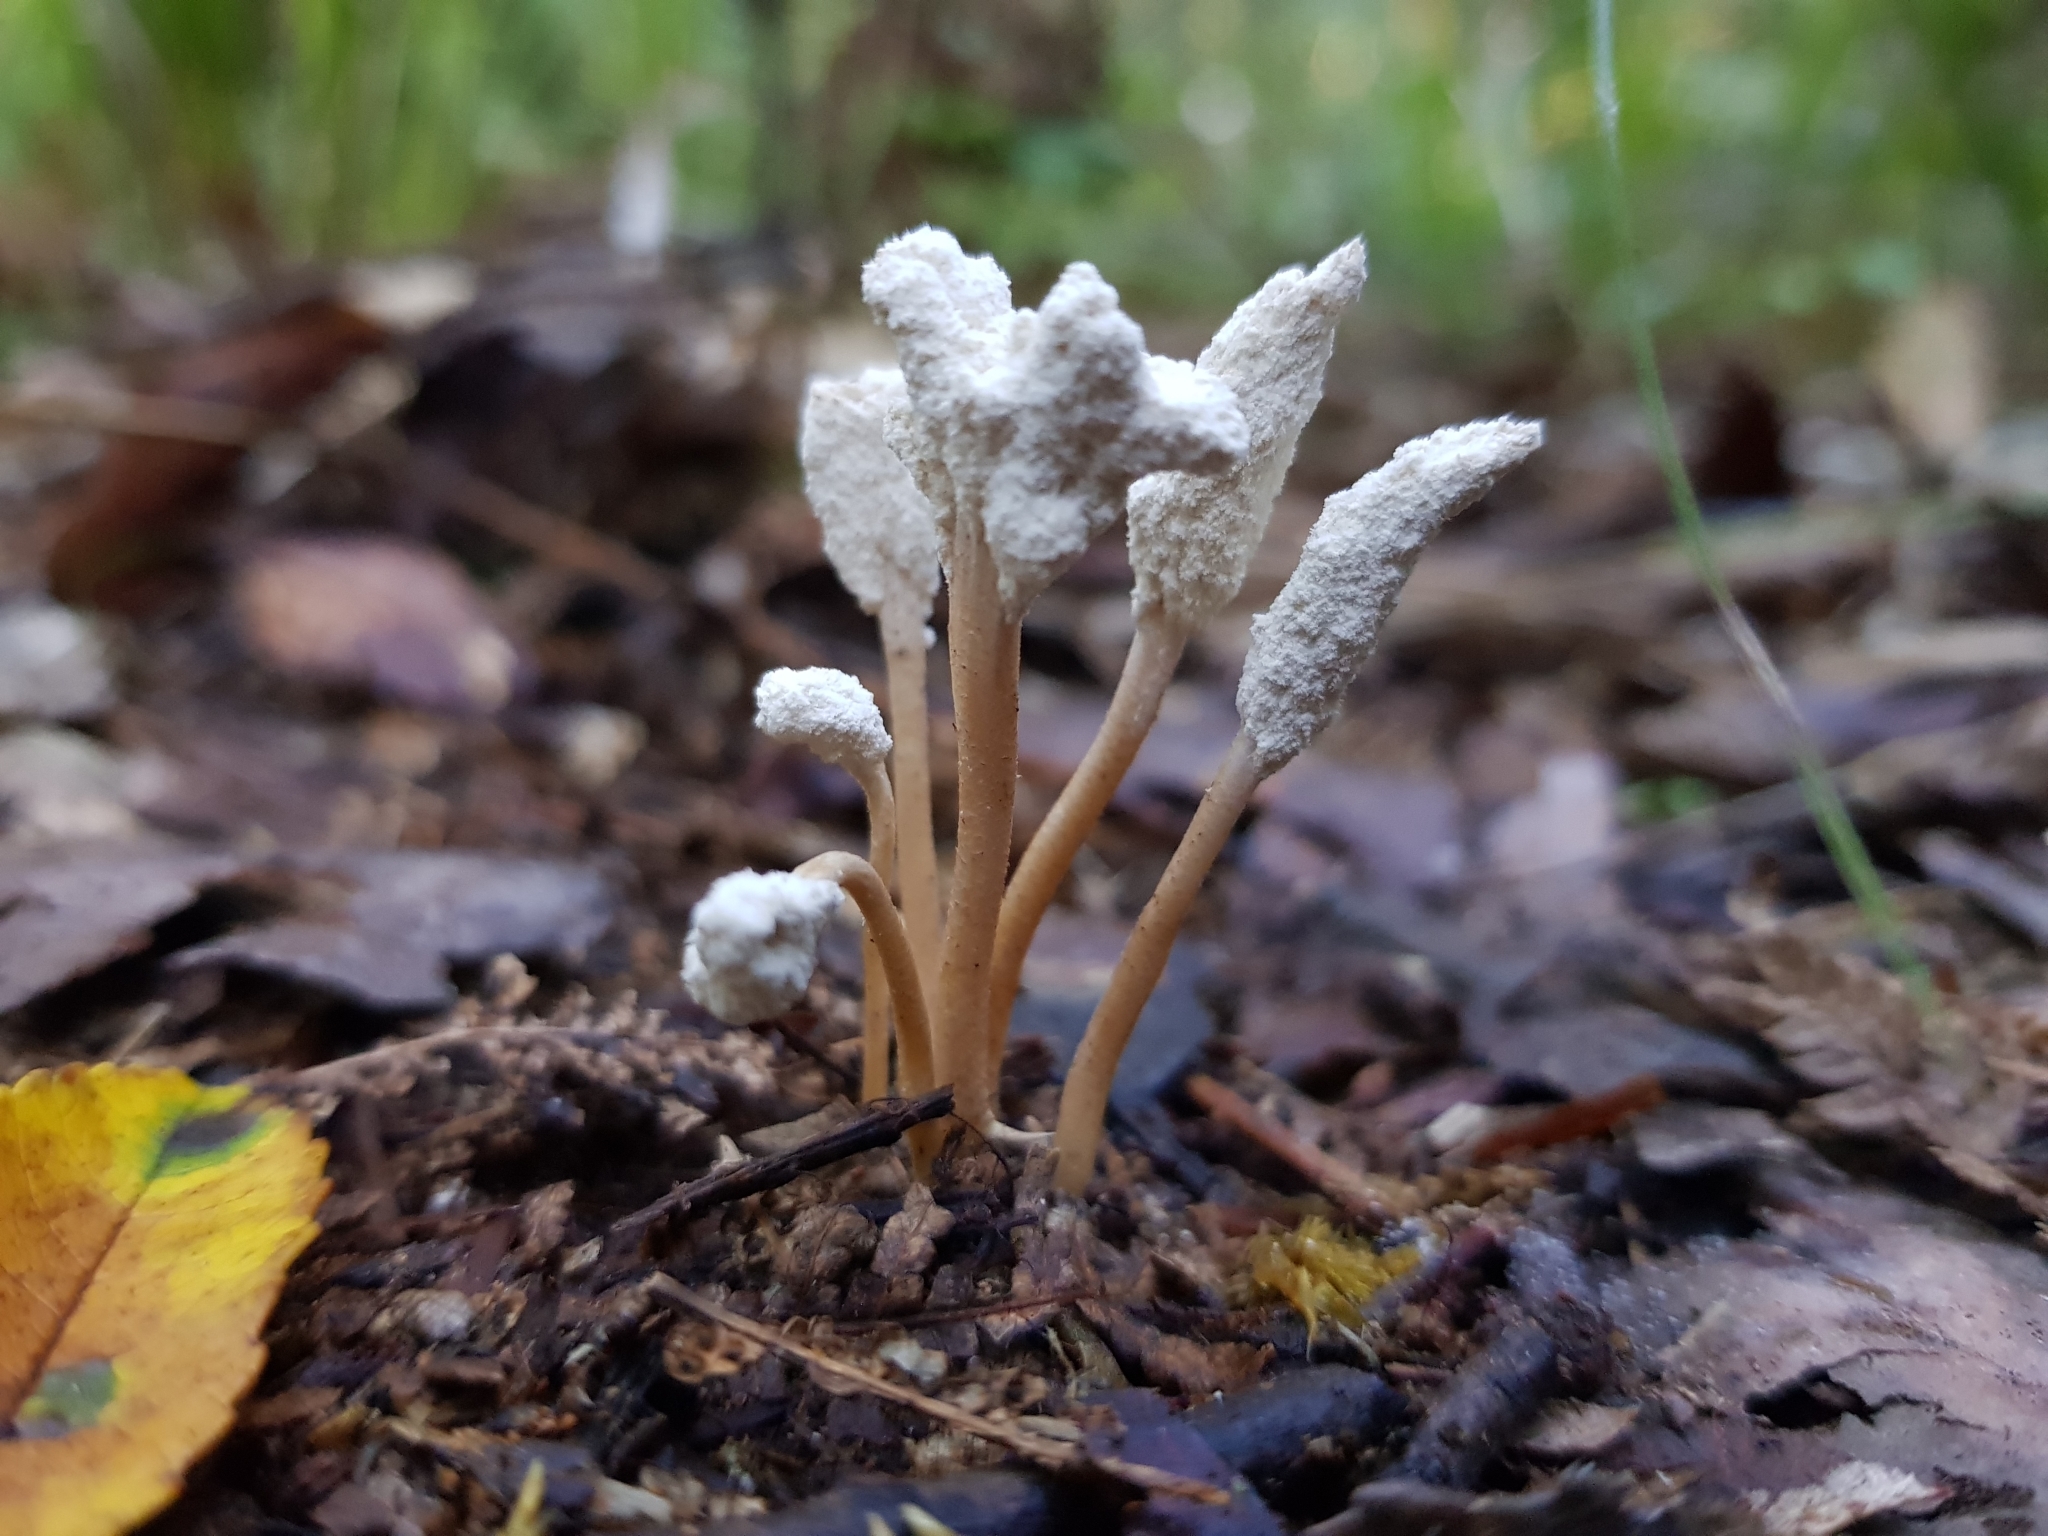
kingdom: Fungi
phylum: Ascomycota
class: Sordariomycetes
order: Hypocreales
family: Cordycipitaceae
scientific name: Cordycipitaceae
